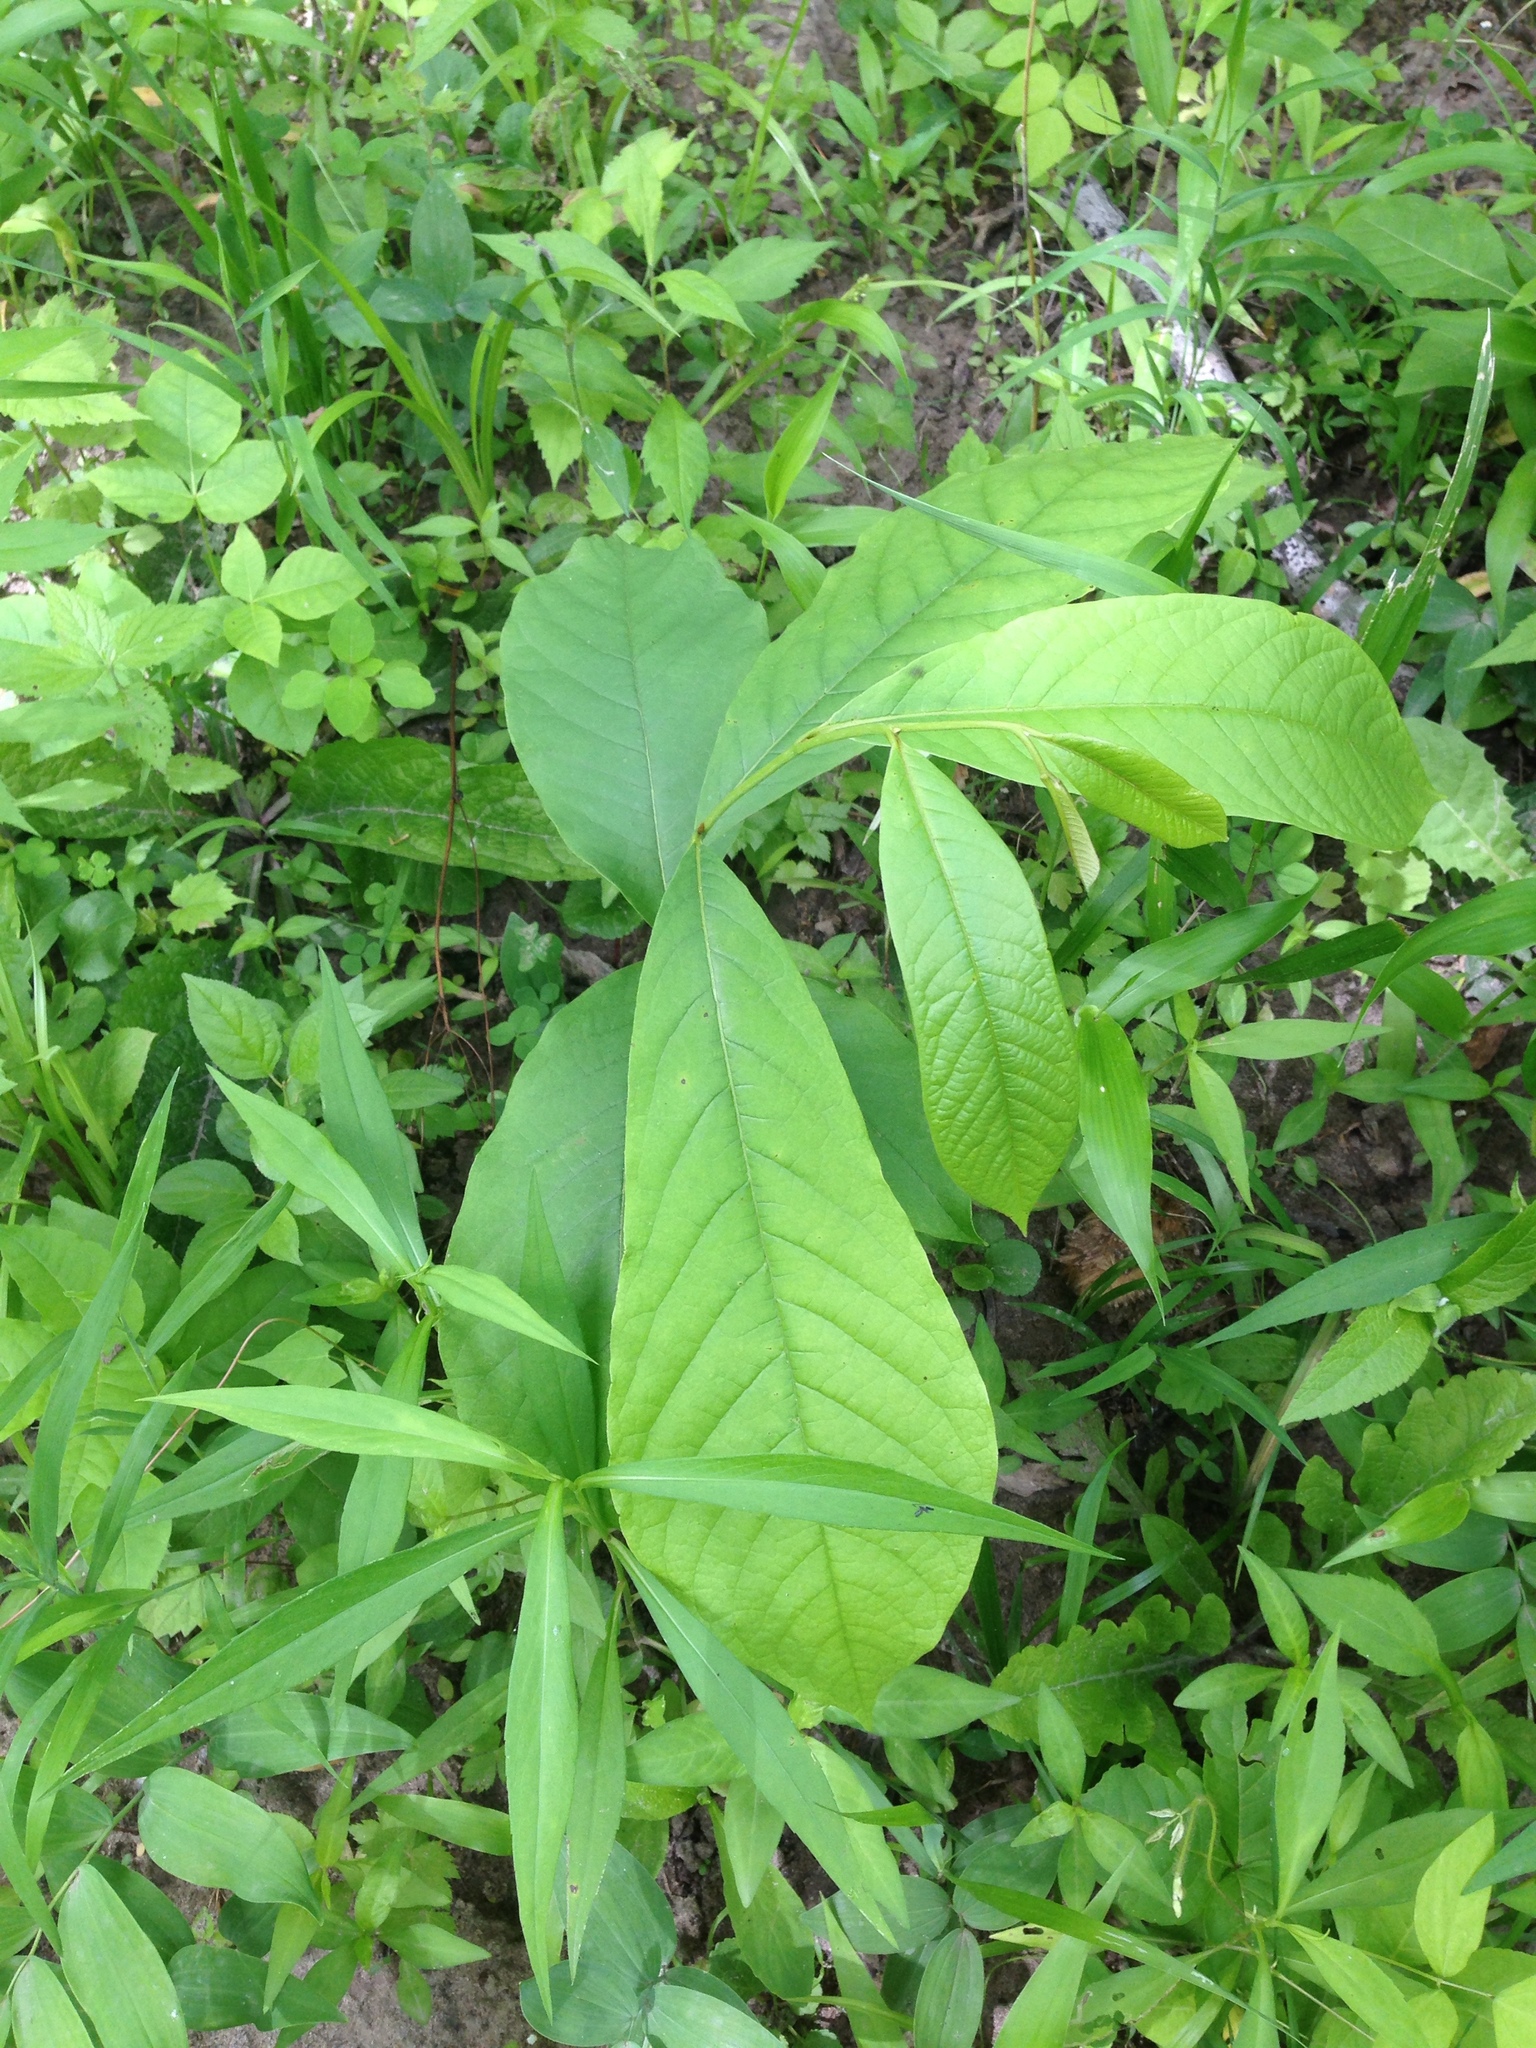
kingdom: Plantae
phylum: Tracheophyta
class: Magnoliopsida
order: Magnoliales
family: Annonaceae
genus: Asimina
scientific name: Asimina triloba
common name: Dog-banana
